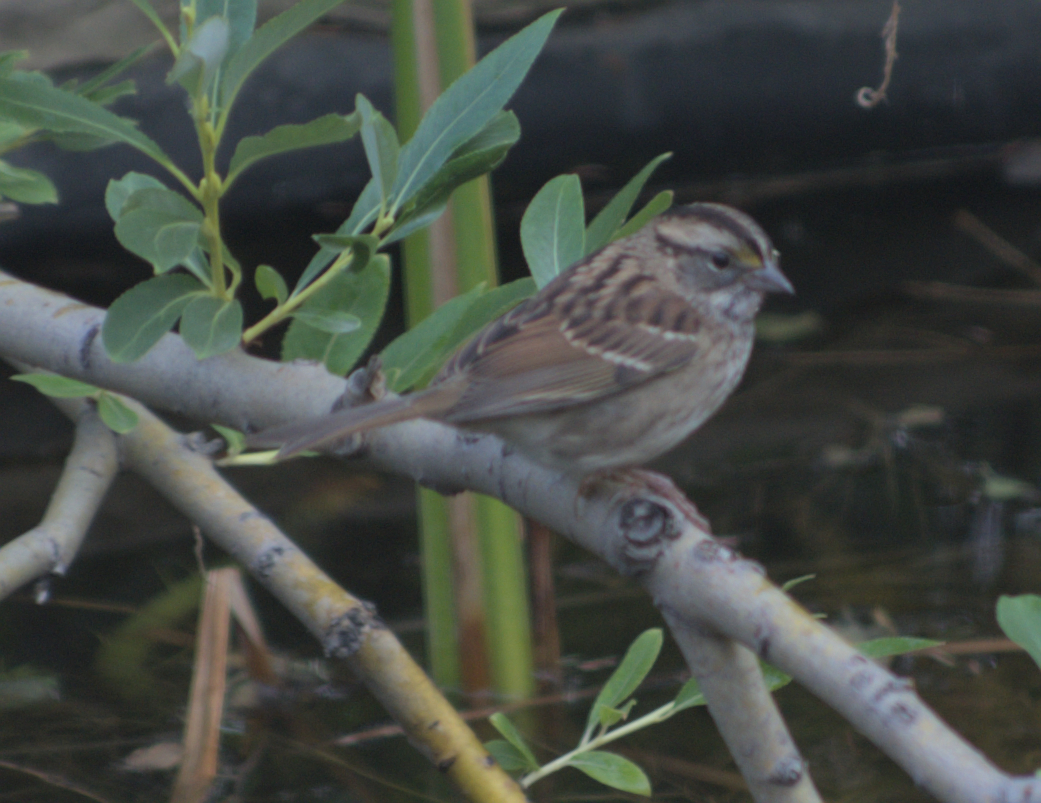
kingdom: Animalia
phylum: Chordata
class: Aves
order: Passeriformes
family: Passerellidae
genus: Zonotrichia
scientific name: Zonotrichia albicollis
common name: White-throated sparrow
